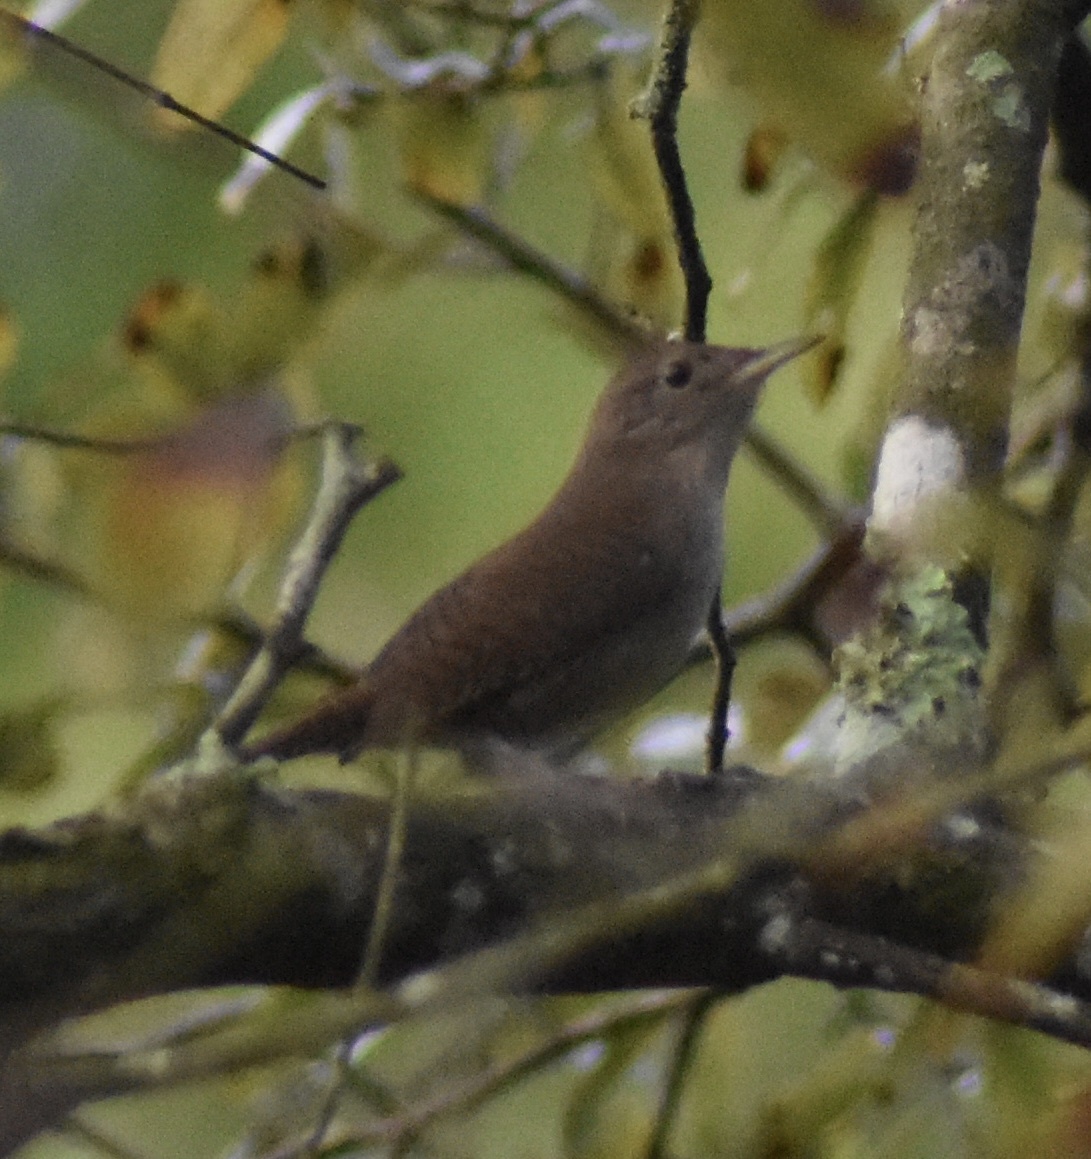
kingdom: Animalia
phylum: Chordata
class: Aves
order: Passeriformes
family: Troglodytidae
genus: Troglodytes
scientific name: Troglodytes aedon
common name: House wren
